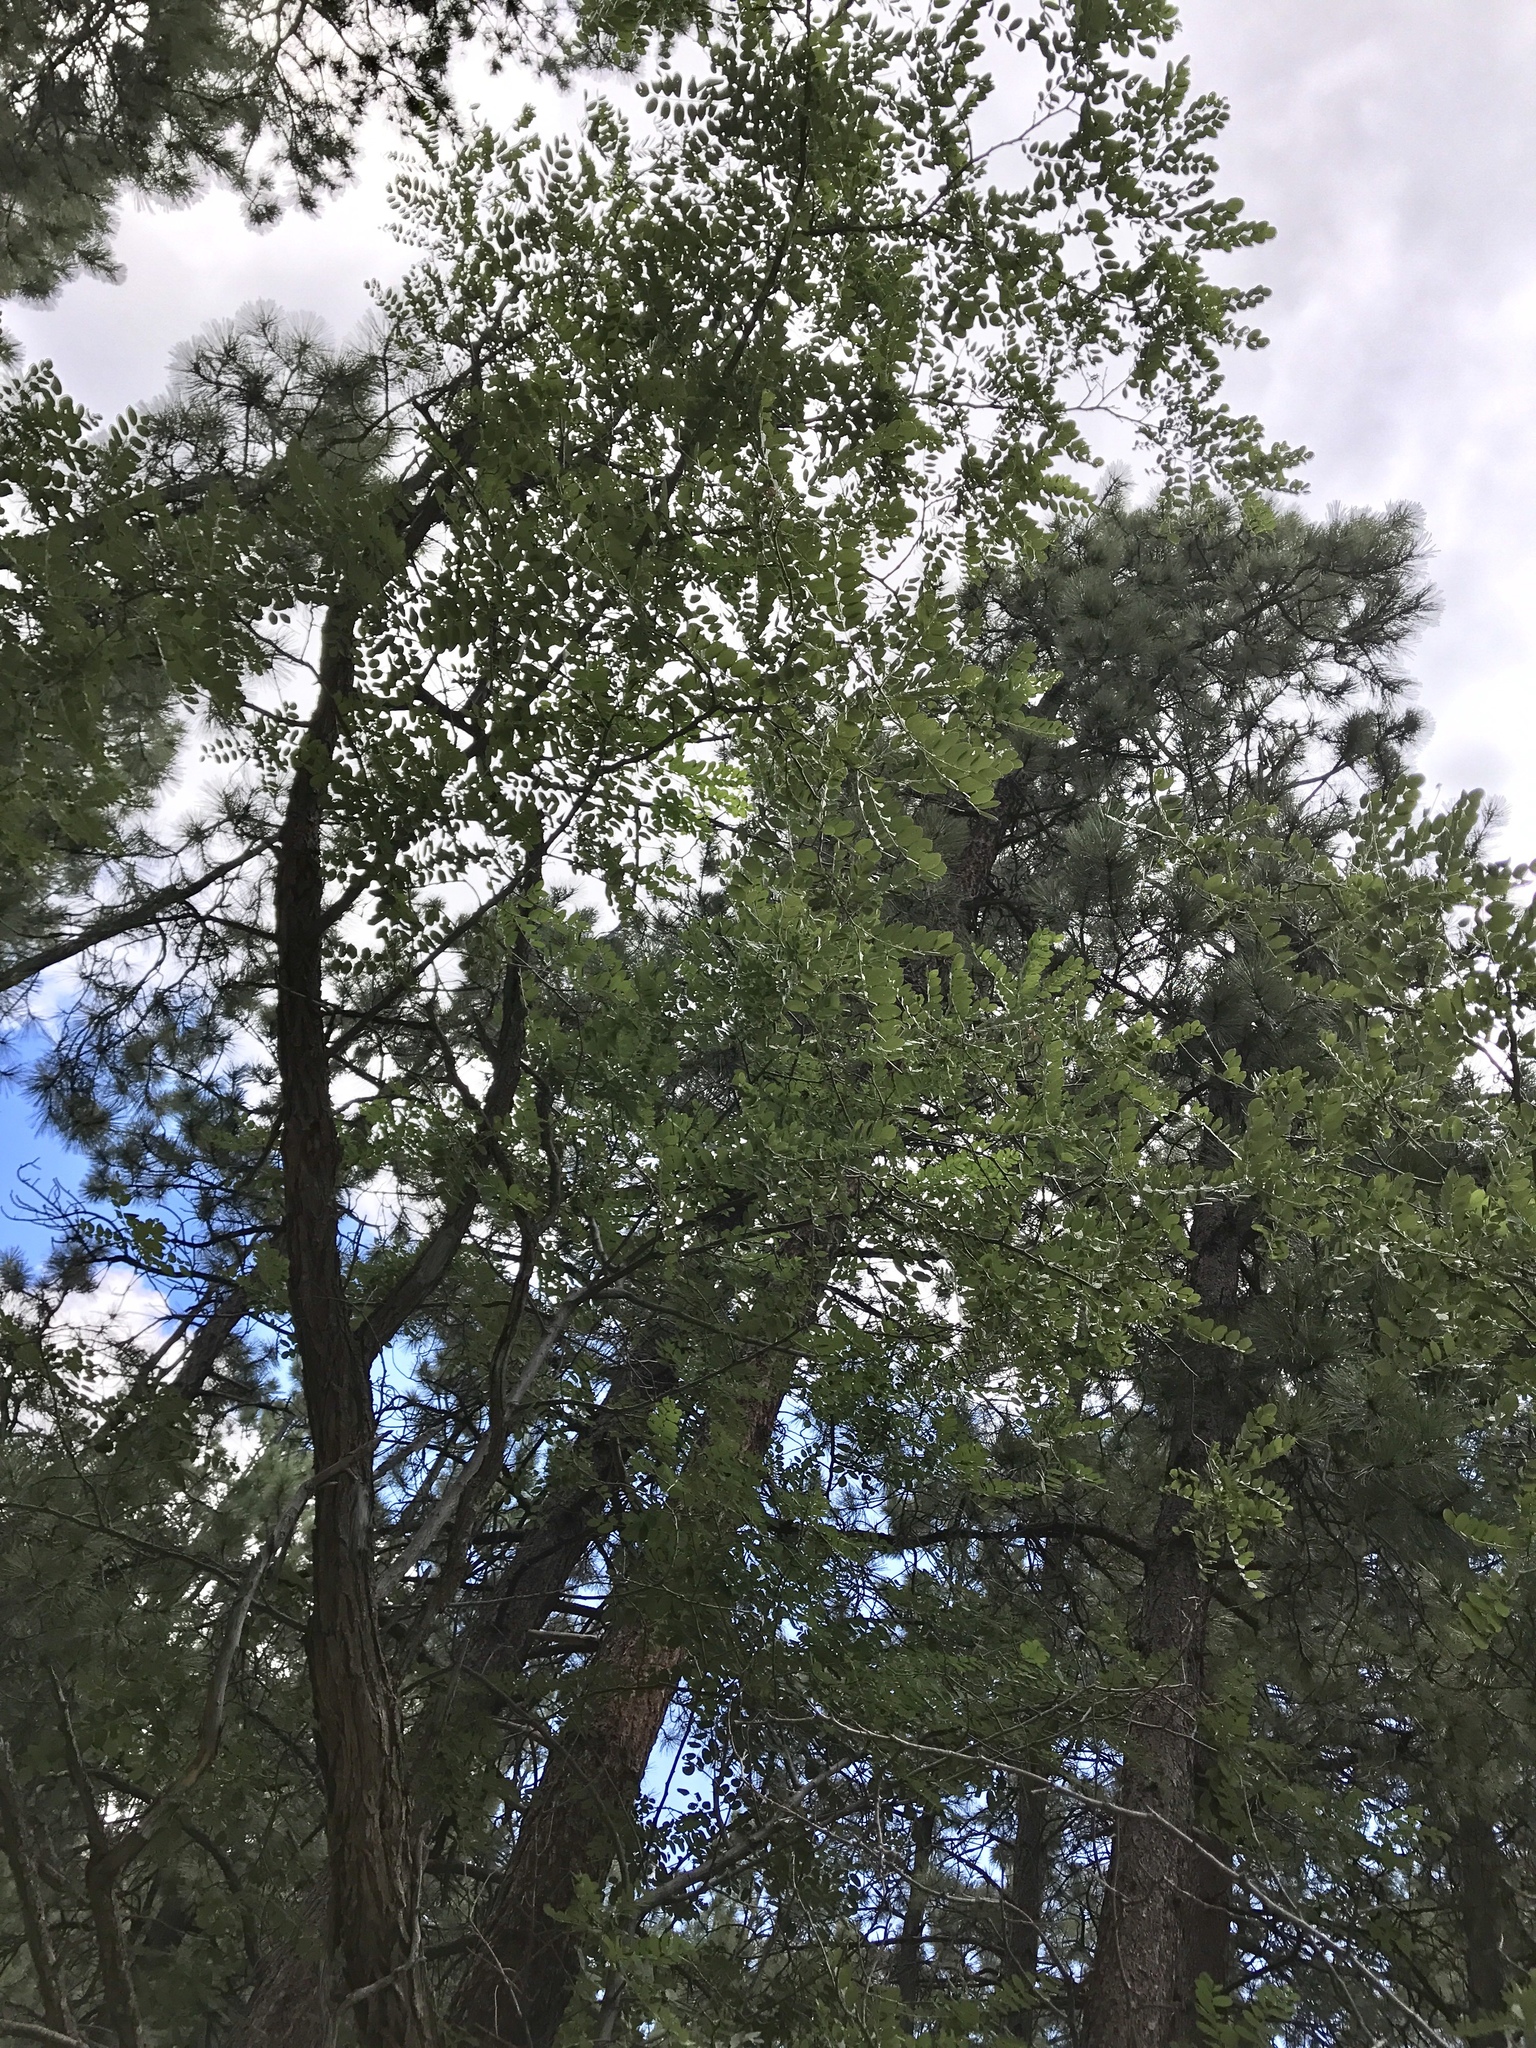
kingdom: Plantae
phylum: Tracheophyta
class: Magnoliopsida
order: Fabales
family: Fabaceae
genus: Robinia
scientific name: Robinia neomexicana
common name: New mexico locust
